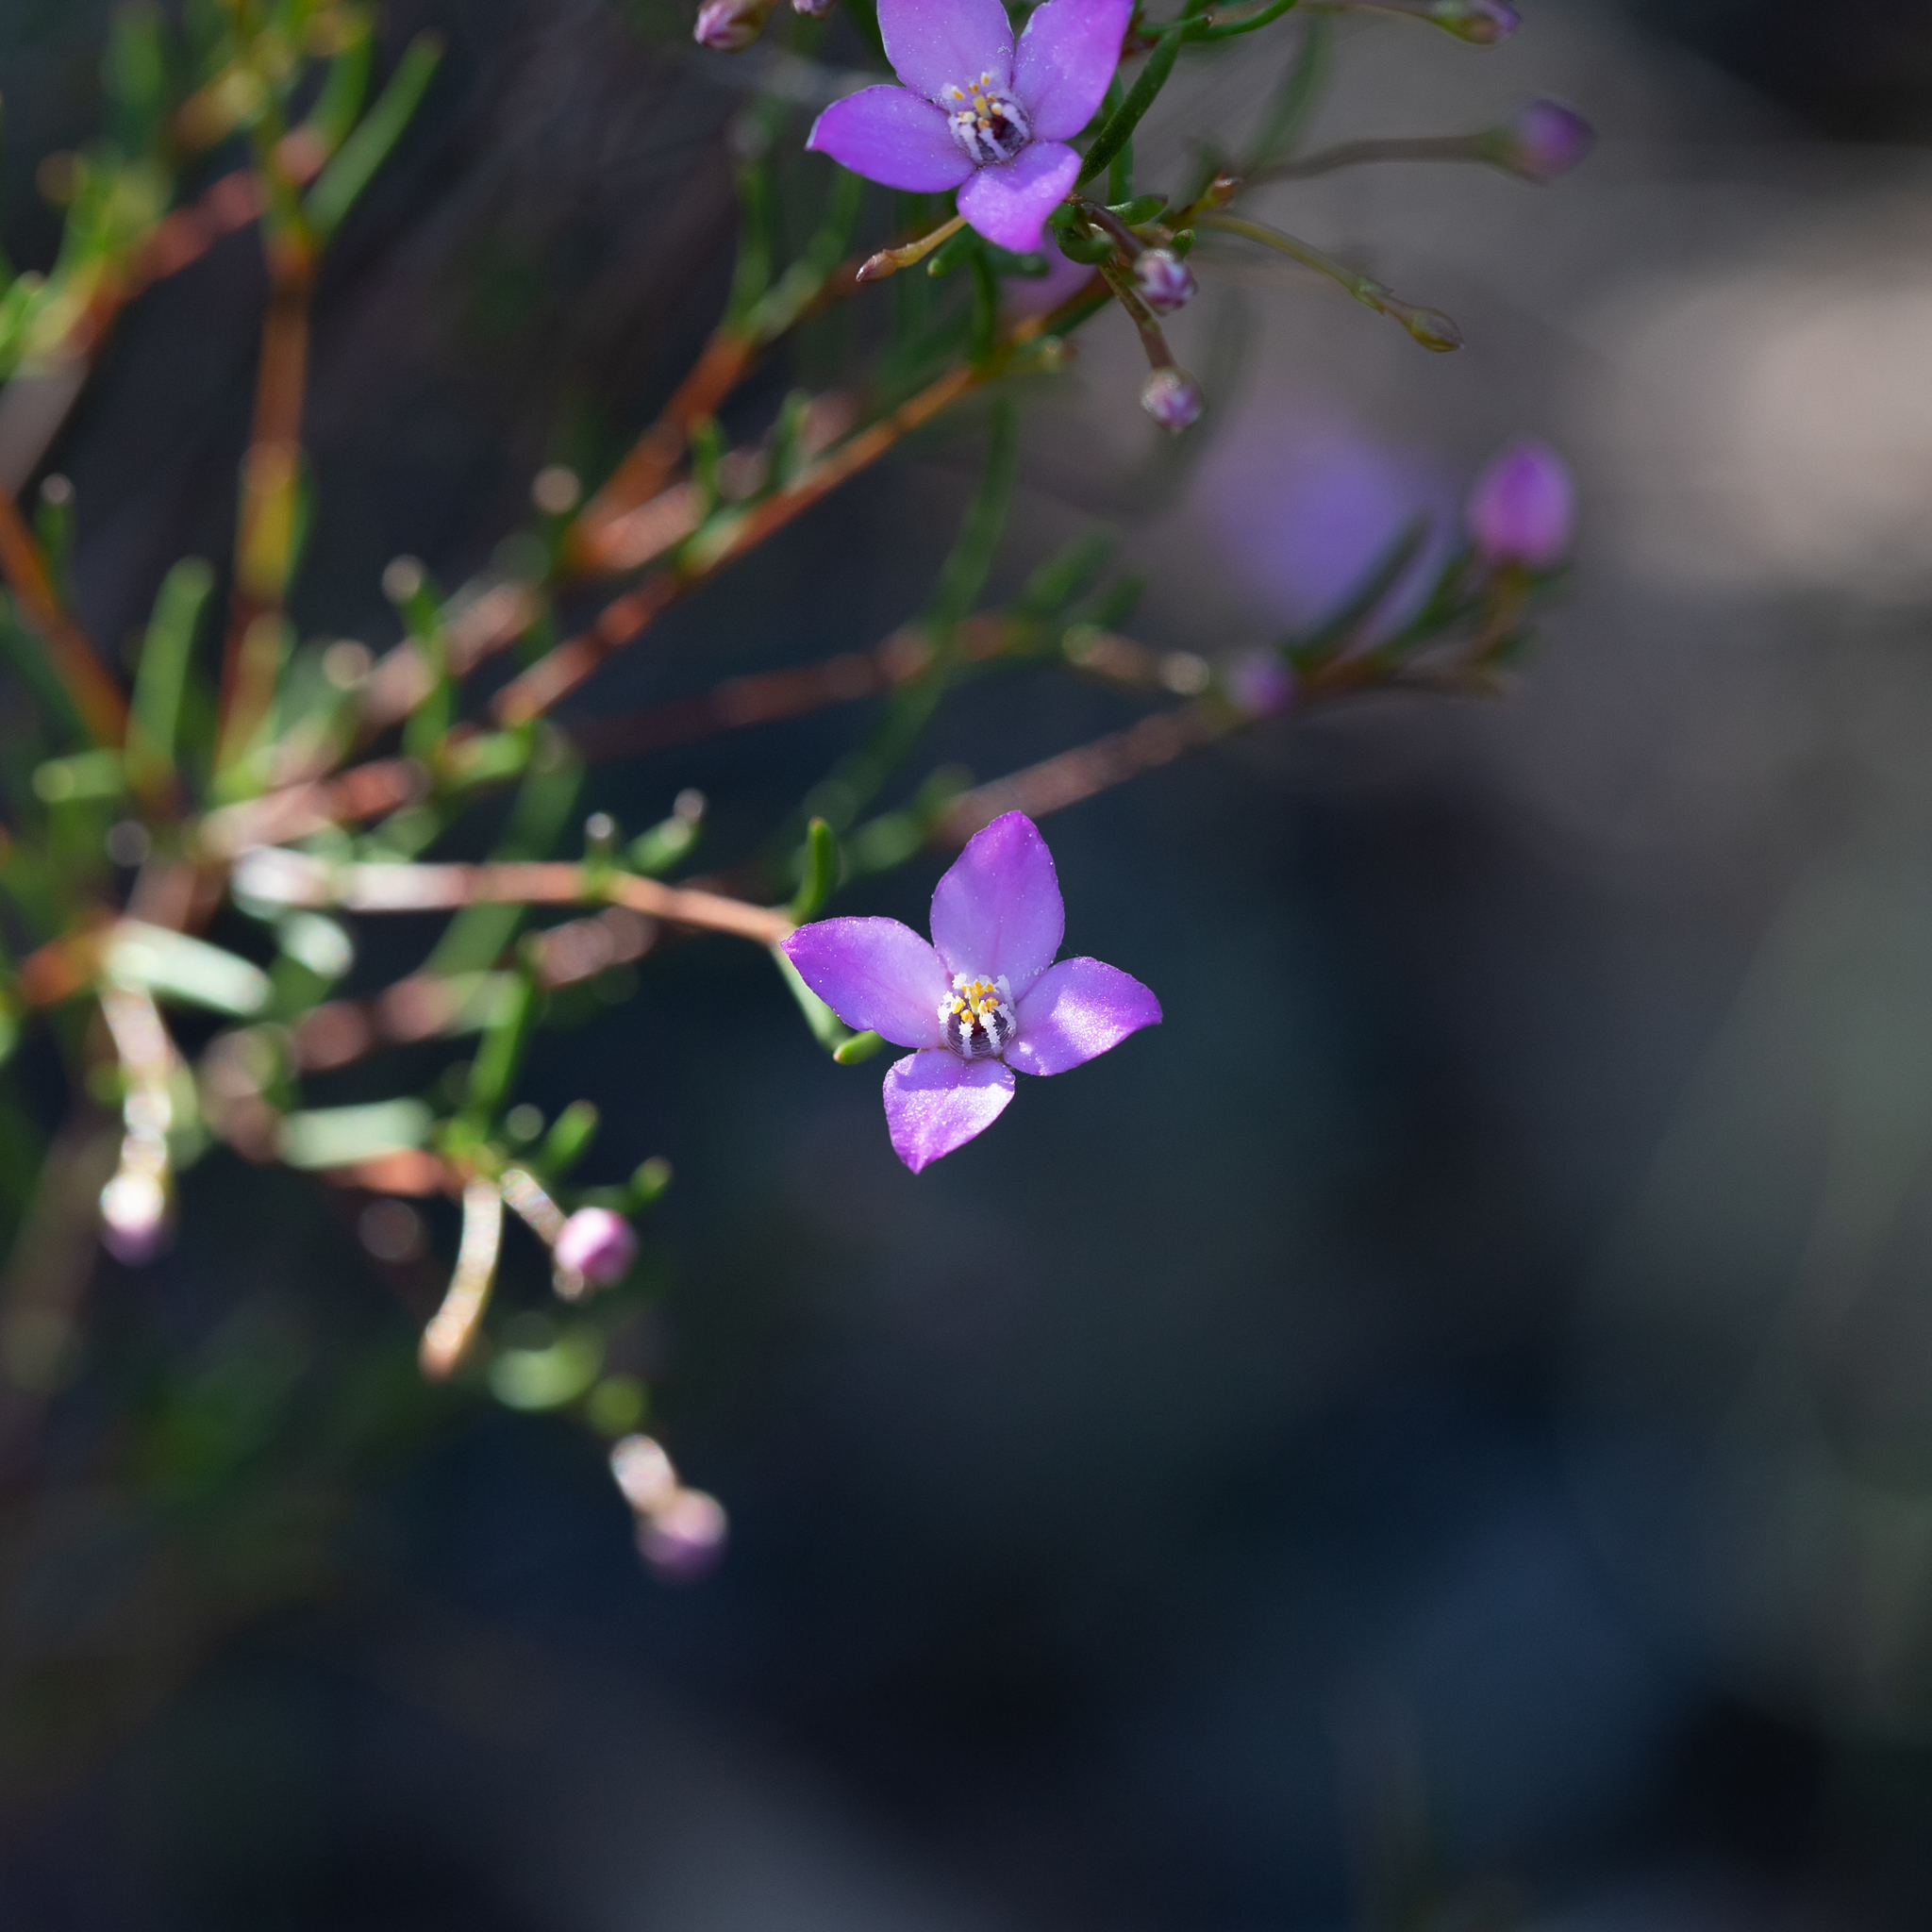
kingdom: Plantae
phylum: Tracheophyta
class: Magnoliopsida
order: Sapindales
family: Rutaceae
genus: Boronia
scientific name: Boronia filifolia
